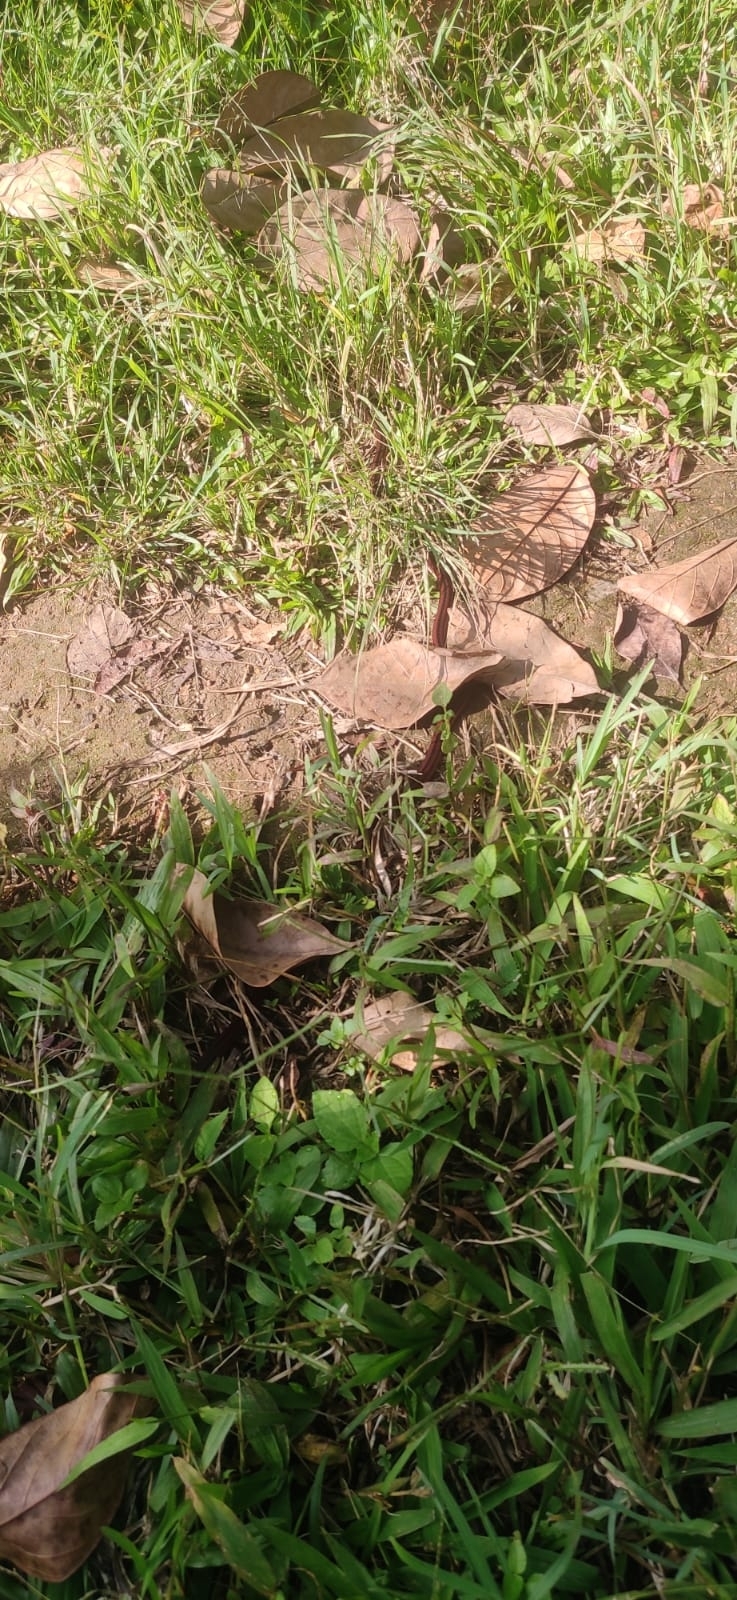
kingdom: Animalia
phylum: Chordata
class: Squamata
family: Elapidae
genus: Calliophis
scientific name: Calliophis nigrescens
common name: Black coral snake
